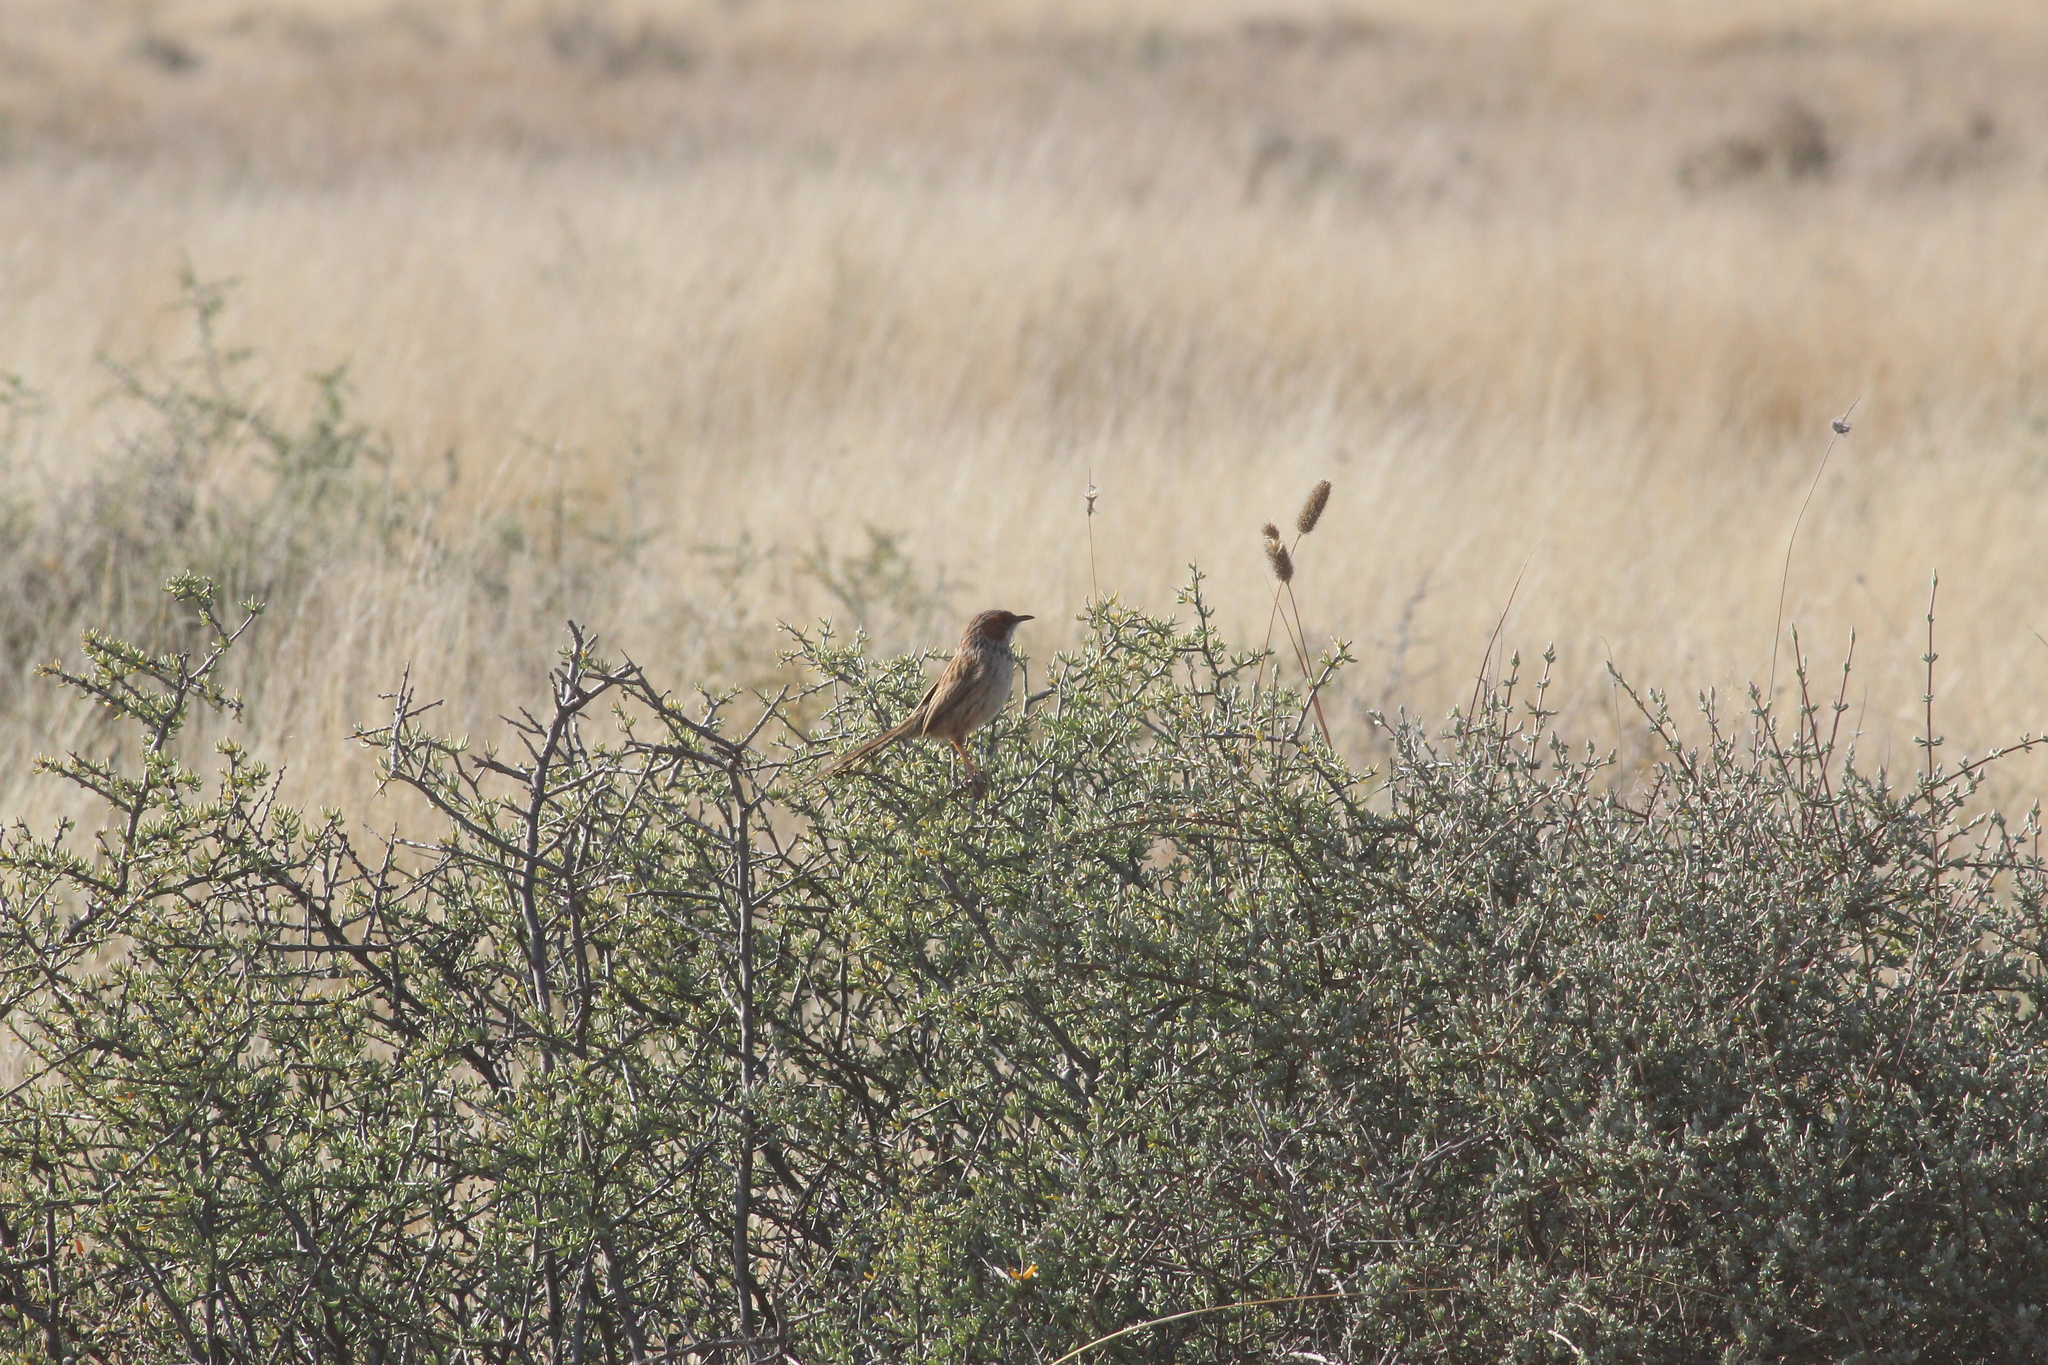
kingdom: Animalia
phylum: Chordata
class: Aves
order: Passeriformes
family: Cisticolidae
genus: Malcorus
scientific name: Malcorus pectoralis
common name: Rufous-eared warbler
